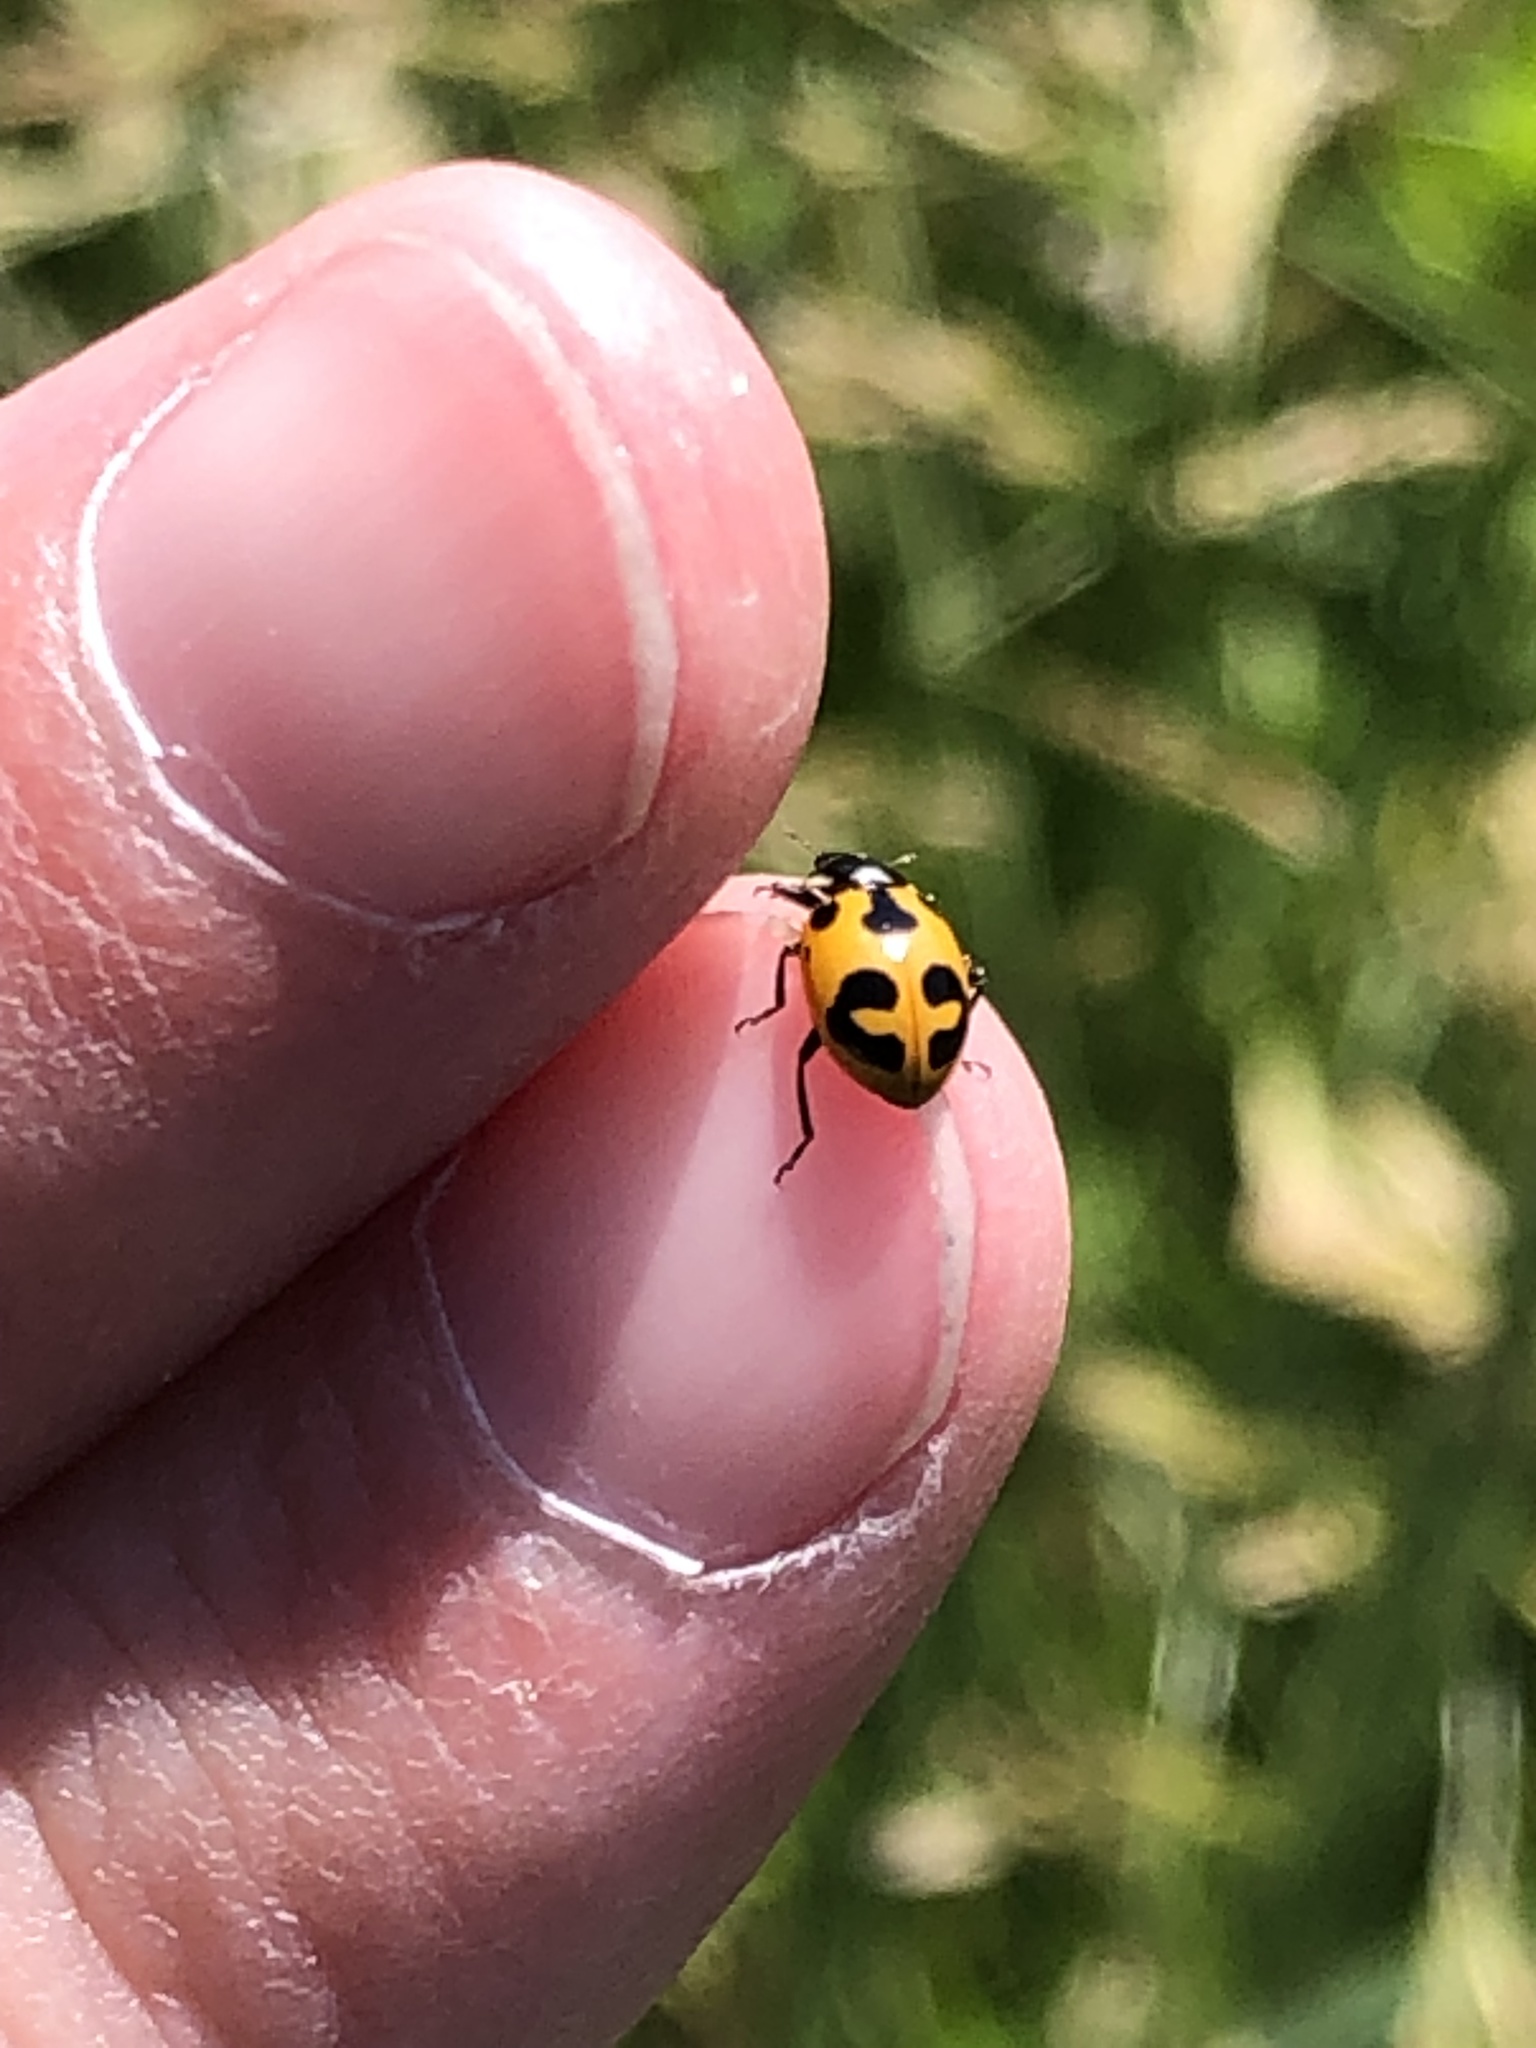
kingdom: Animalia
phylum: Arthropoda
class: Insecta
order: Coleoptera
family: Coccinellidae
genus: Hippodamia
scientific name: Hippodamia parenthesis
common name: Parenthesis lady beetle
